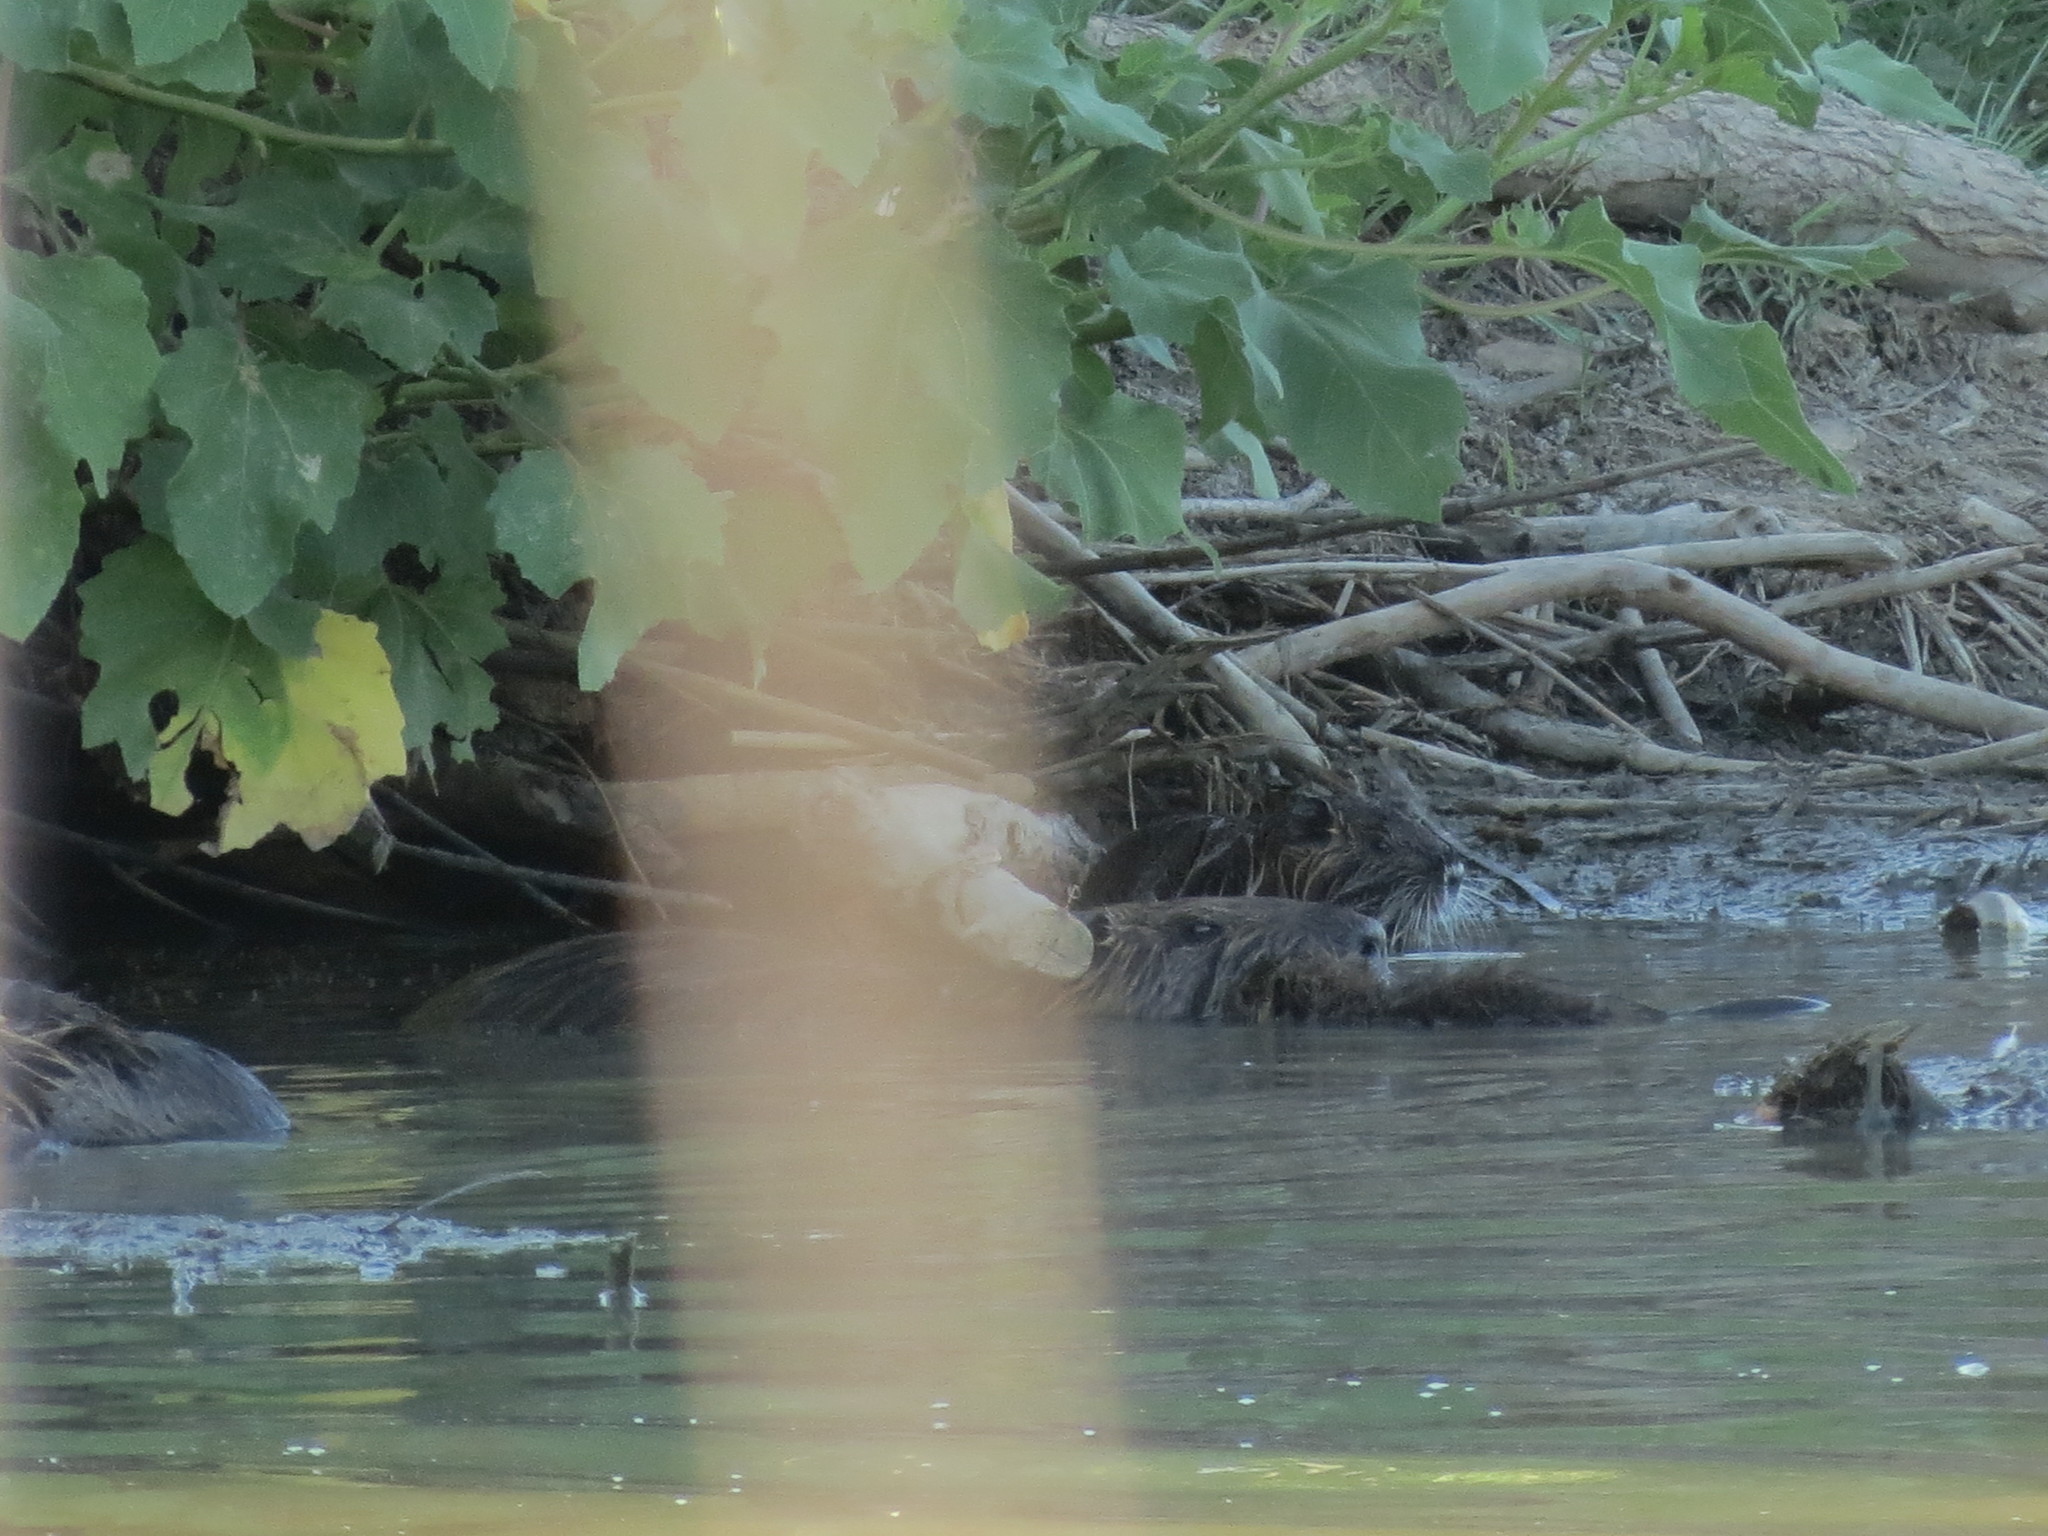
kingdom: Animalia
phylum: Chordata
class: Mammalia
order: Rodentia
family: Myocastoridae
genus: Myocastor
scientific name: Myocastor coypus
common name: Coypu
